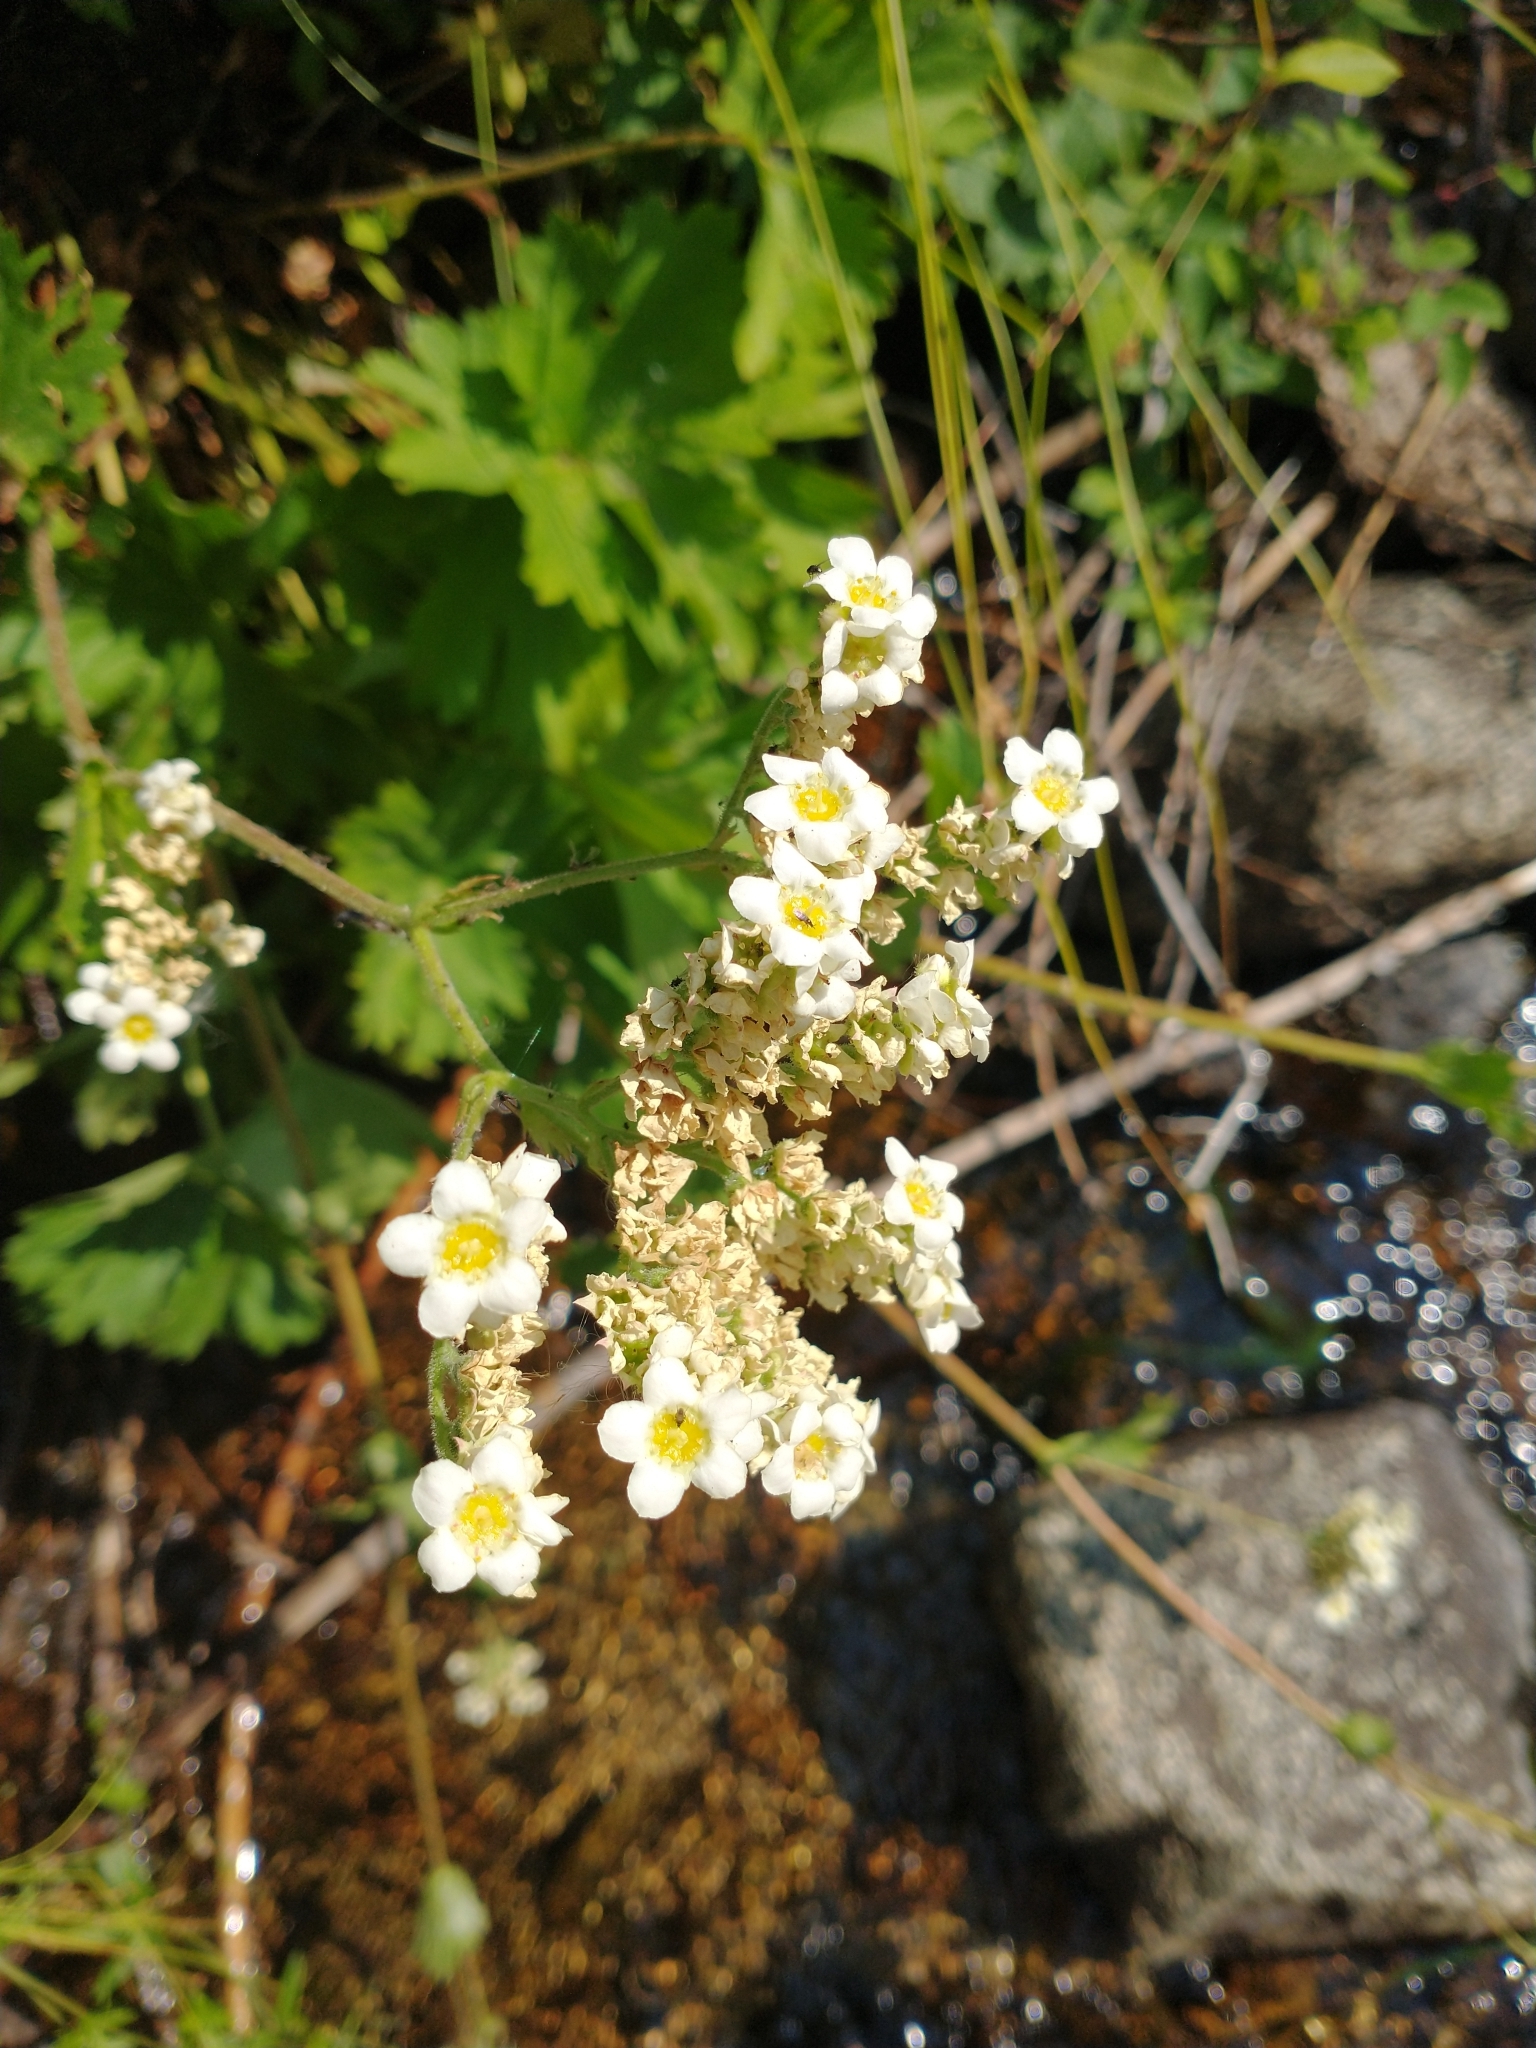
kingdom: Plantae
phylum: Tracheophyta
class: Magnoliopsida
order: Saxifragales
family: Saxifragaceae
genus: Boykinia
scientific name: Boykinia major
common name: Large boykinia
